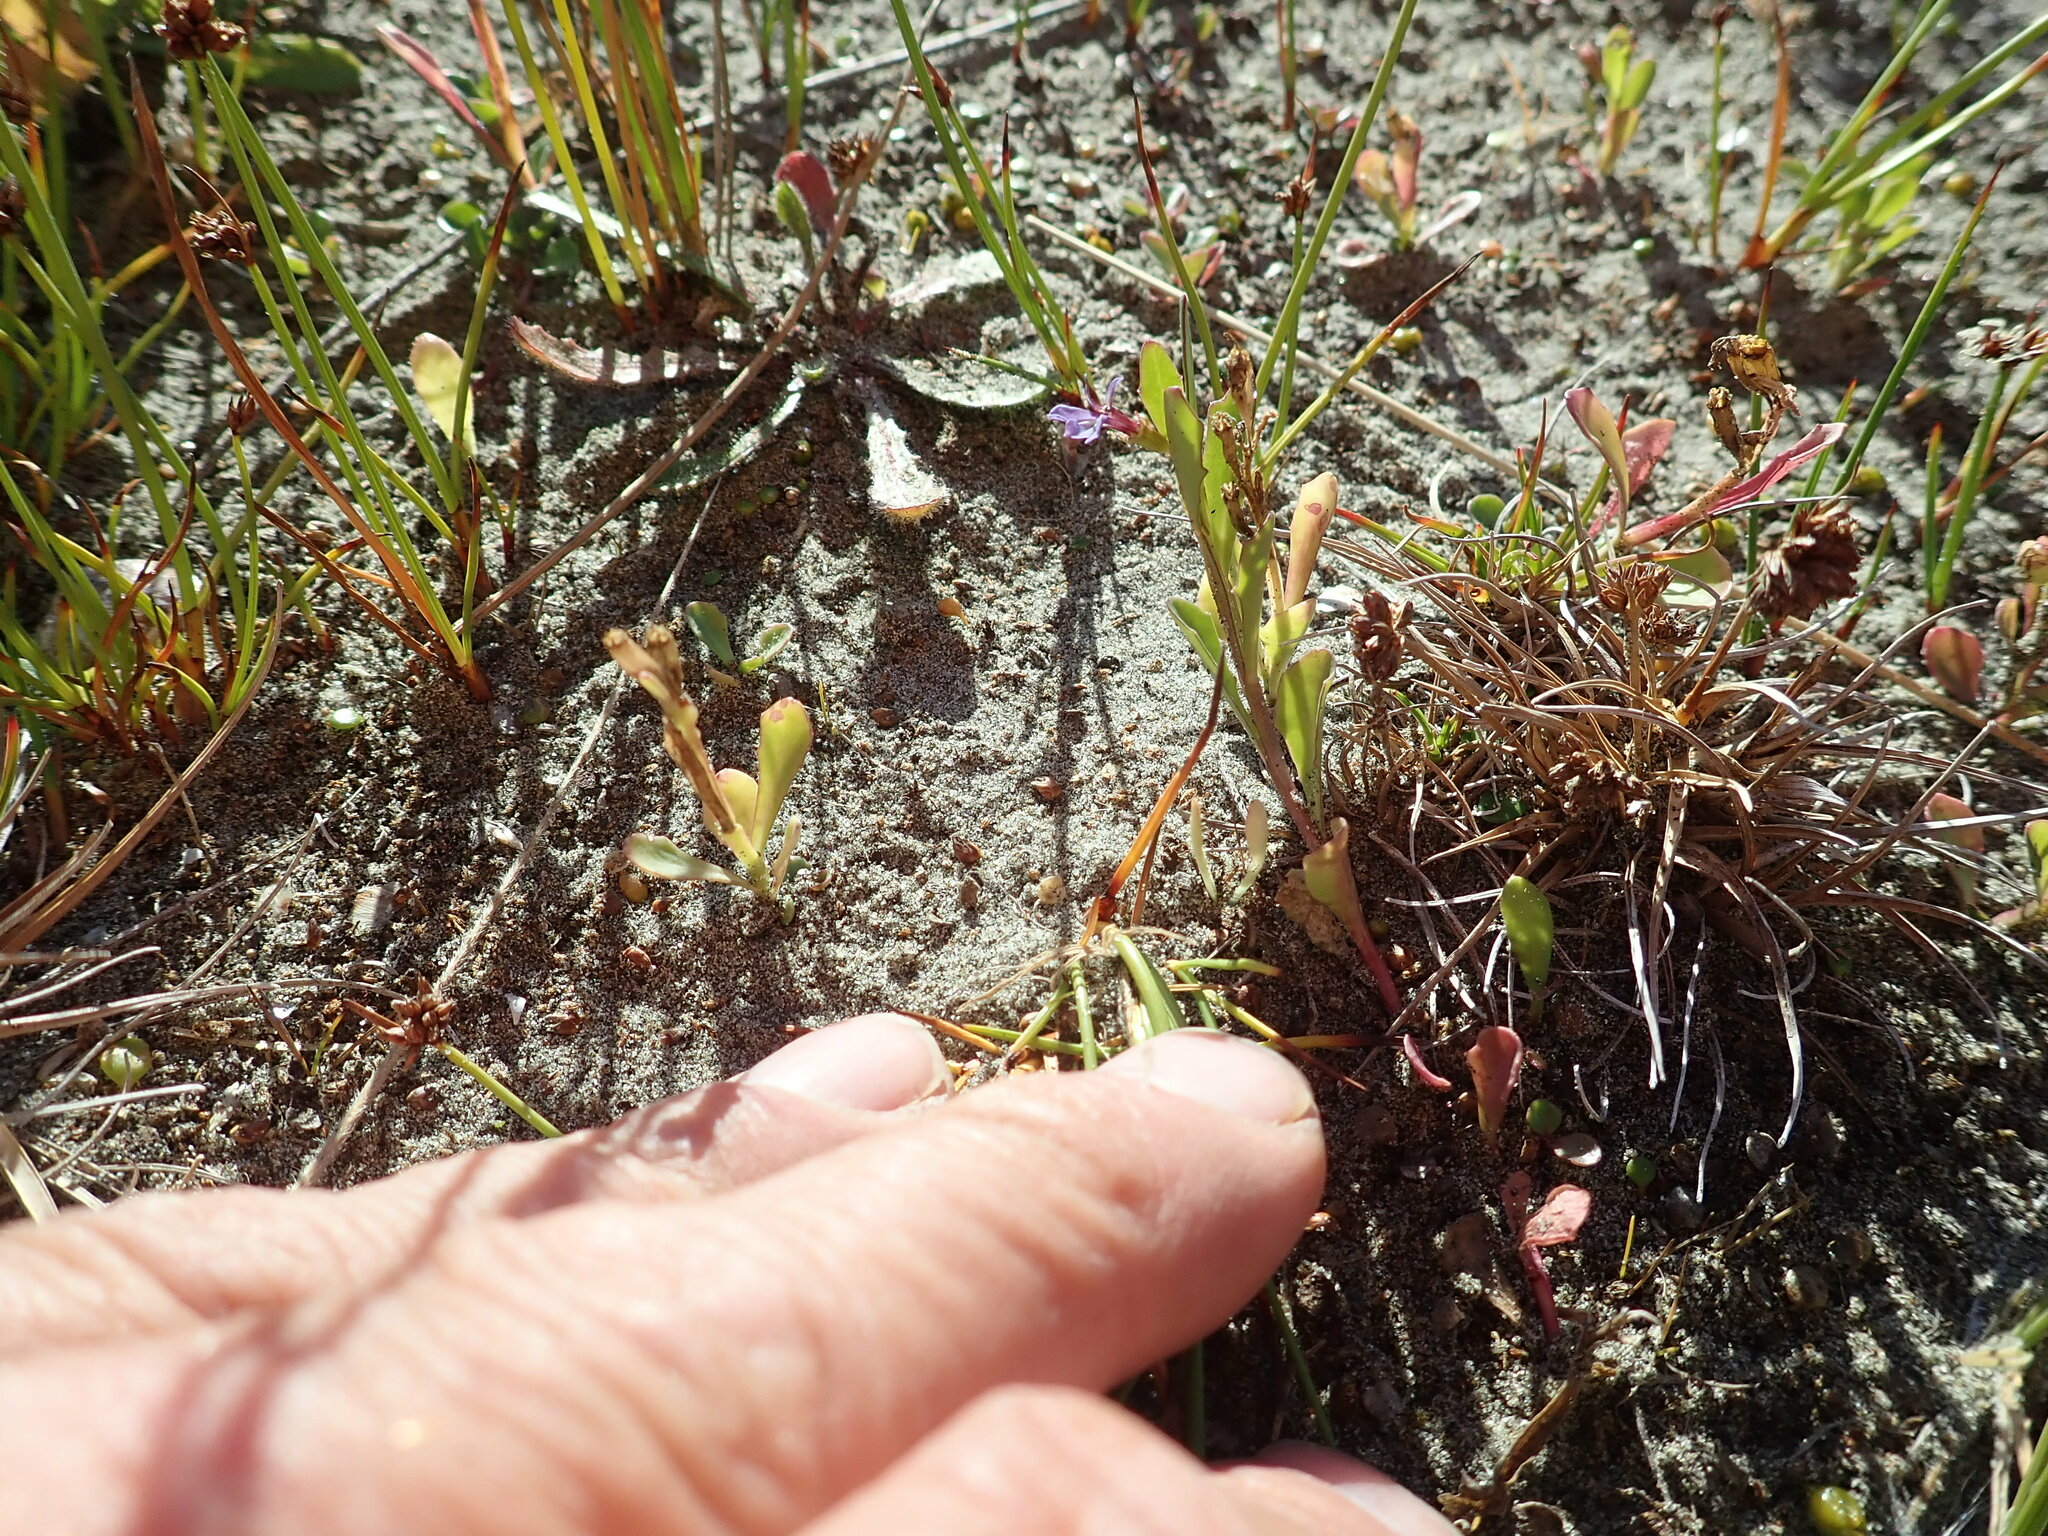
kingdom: Plantae
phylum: Tracheophyta
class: Magnoliopsida
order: Asterales
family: Campanulaceae
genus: Lobelia
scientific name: Lobelia anceps
